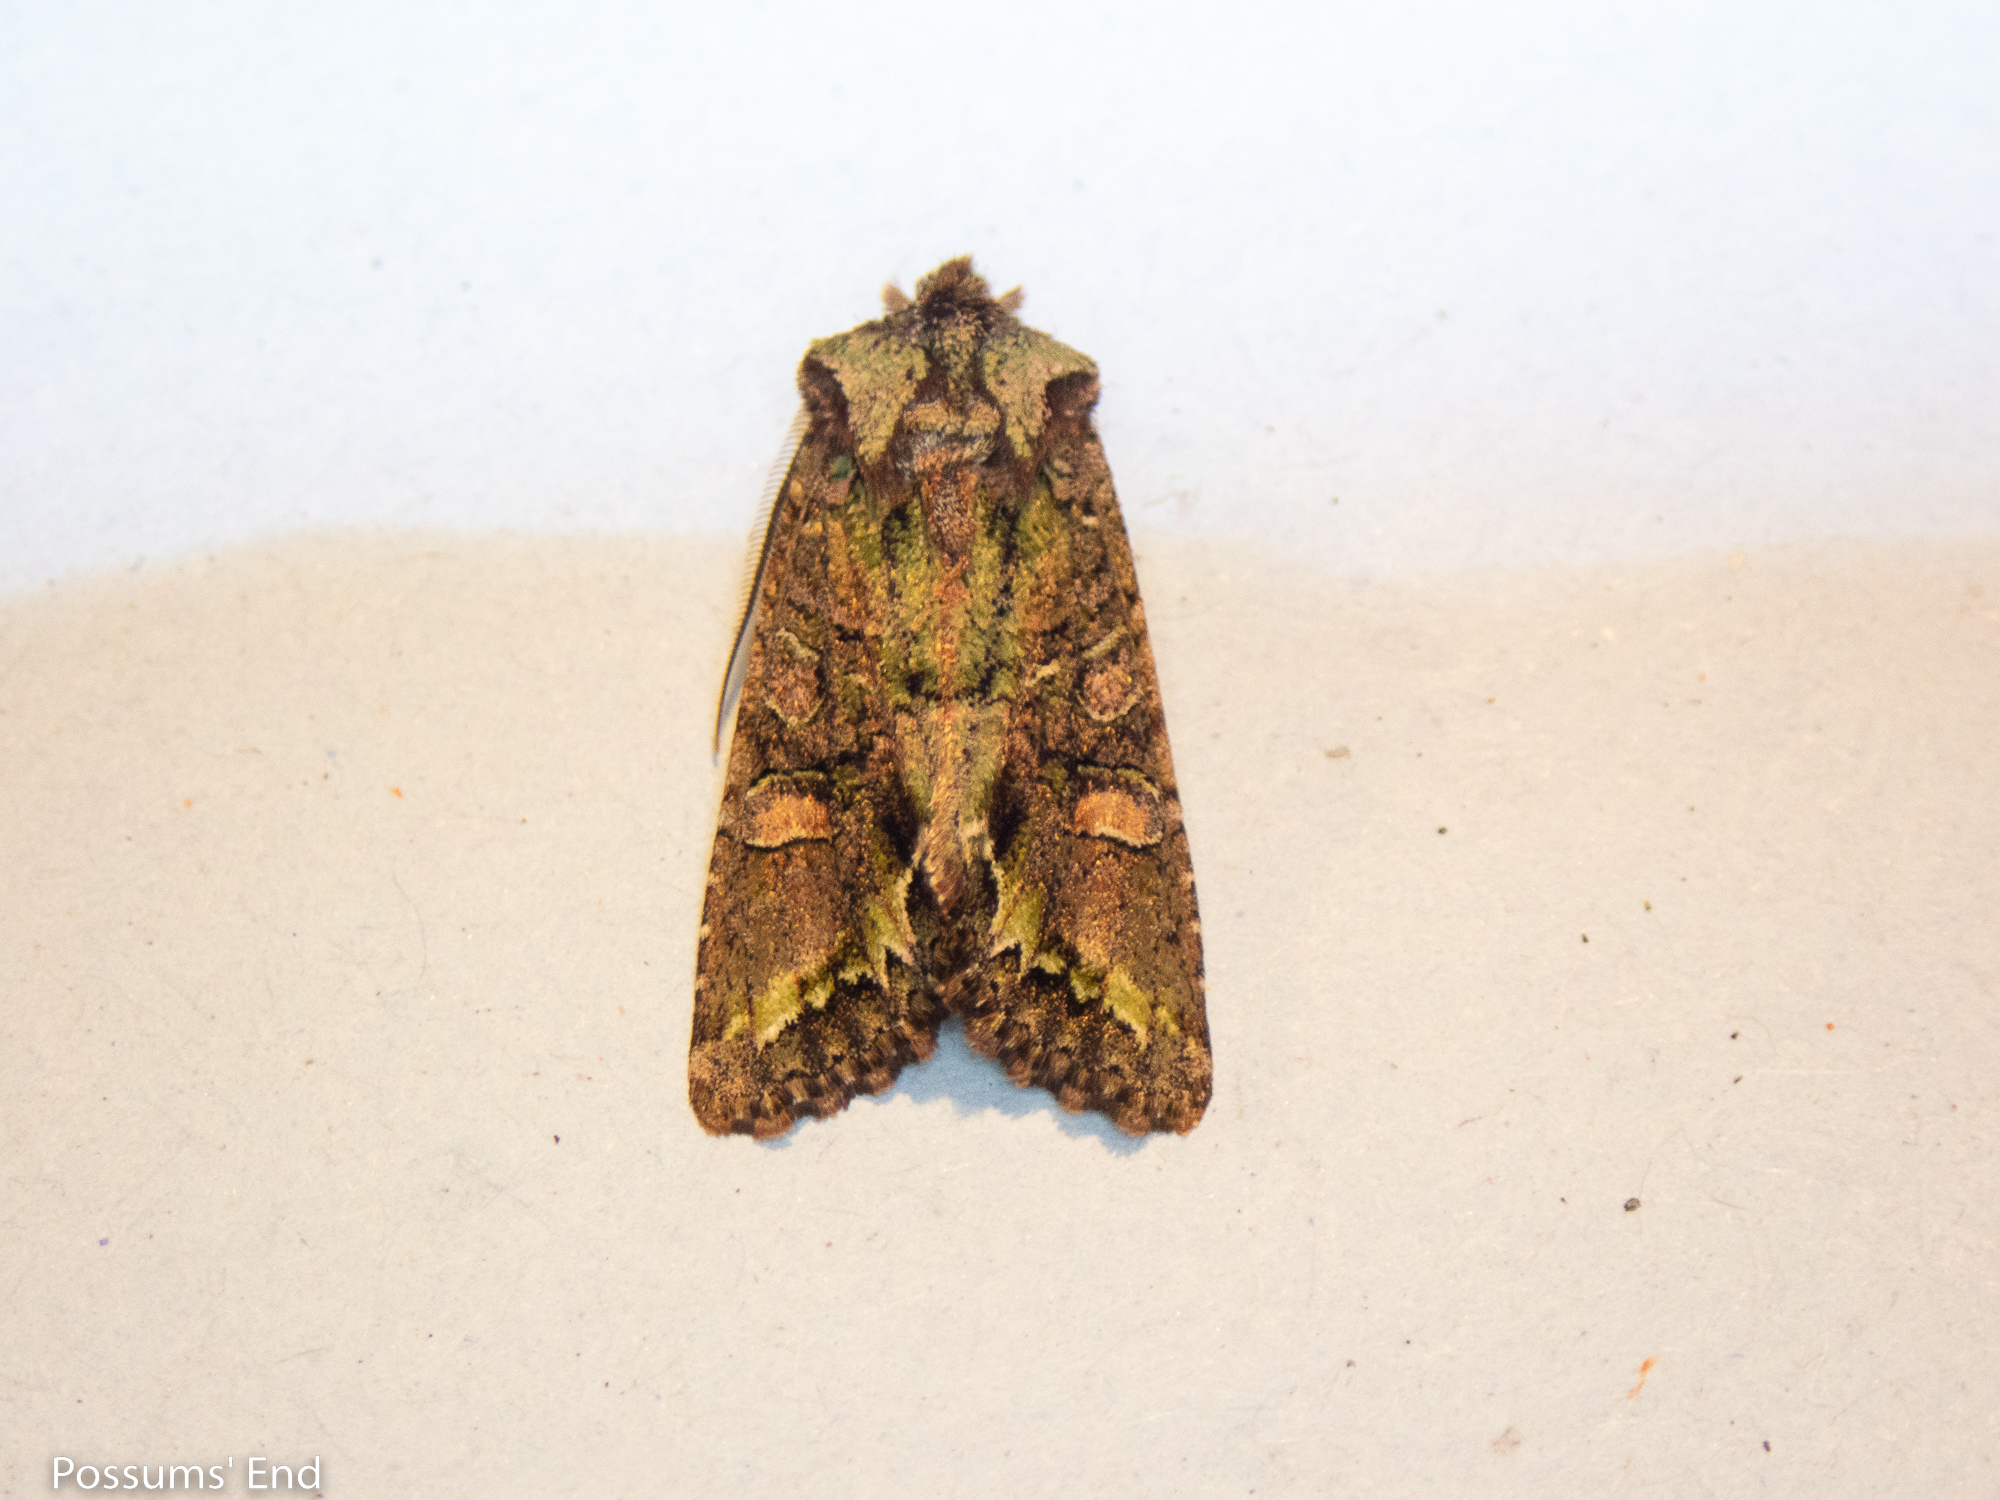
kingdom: Animalia
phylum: Arthropoda
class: Insecta
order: Lepidoptera
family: Noctuidae
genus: Ichneutica
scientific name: Ichneutica insignis
